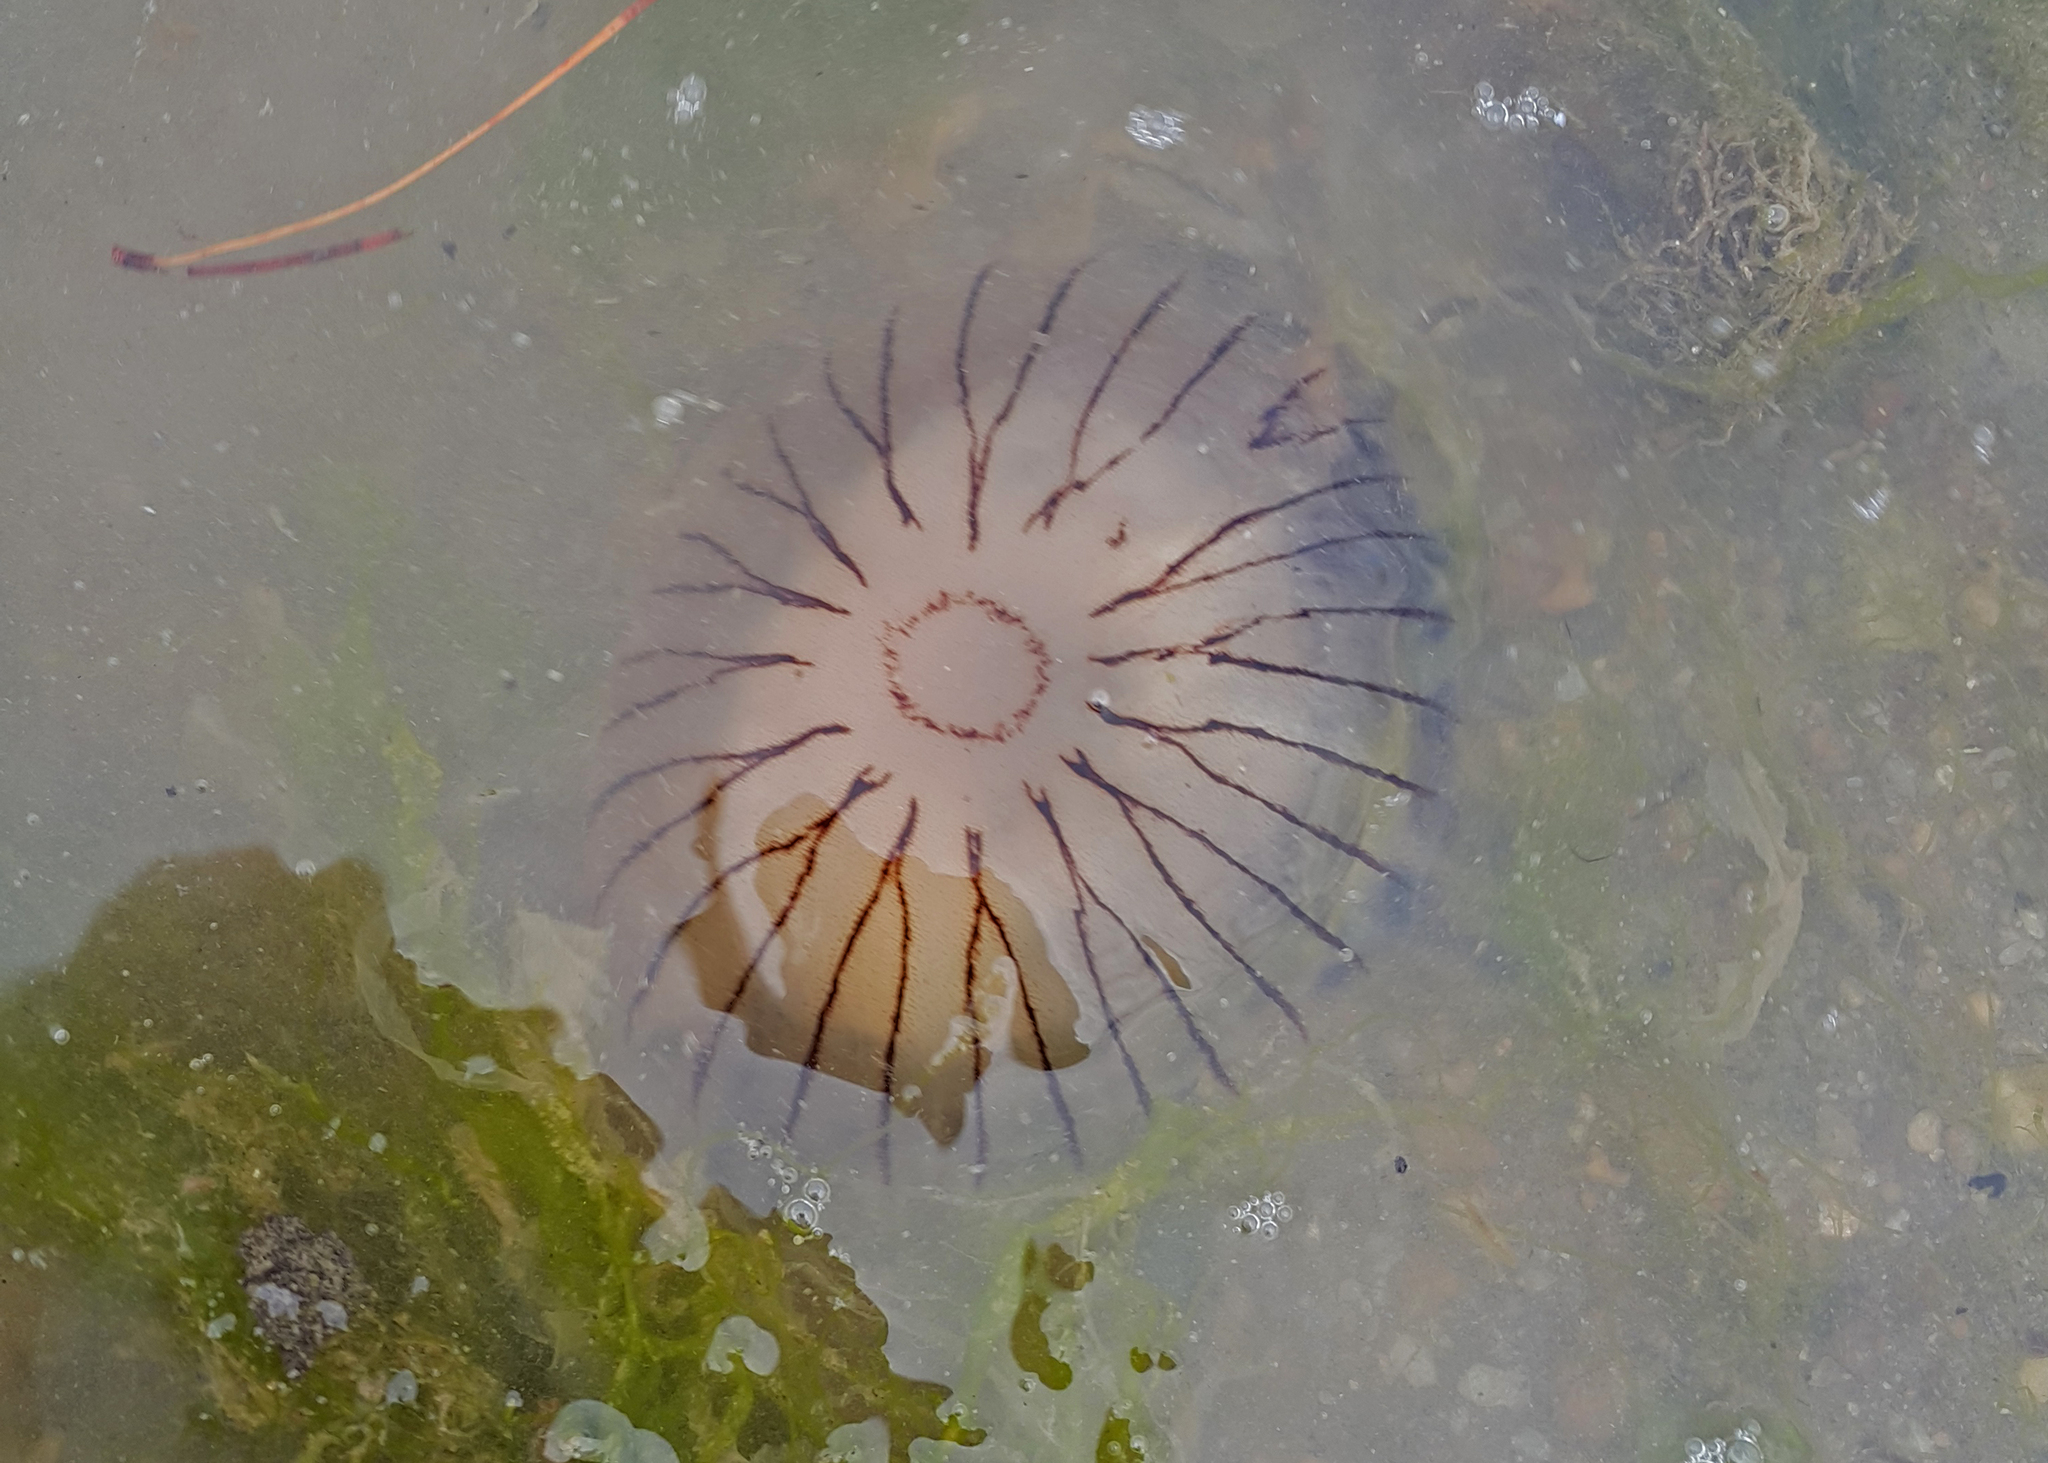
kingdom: Animalia
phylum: Cnidaria
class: Scyphozoa
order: Semaeostomeae
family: Pelagiidae
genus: Chrysaora
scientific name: Chrysaora hysoscella
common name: Compass jellyfish
